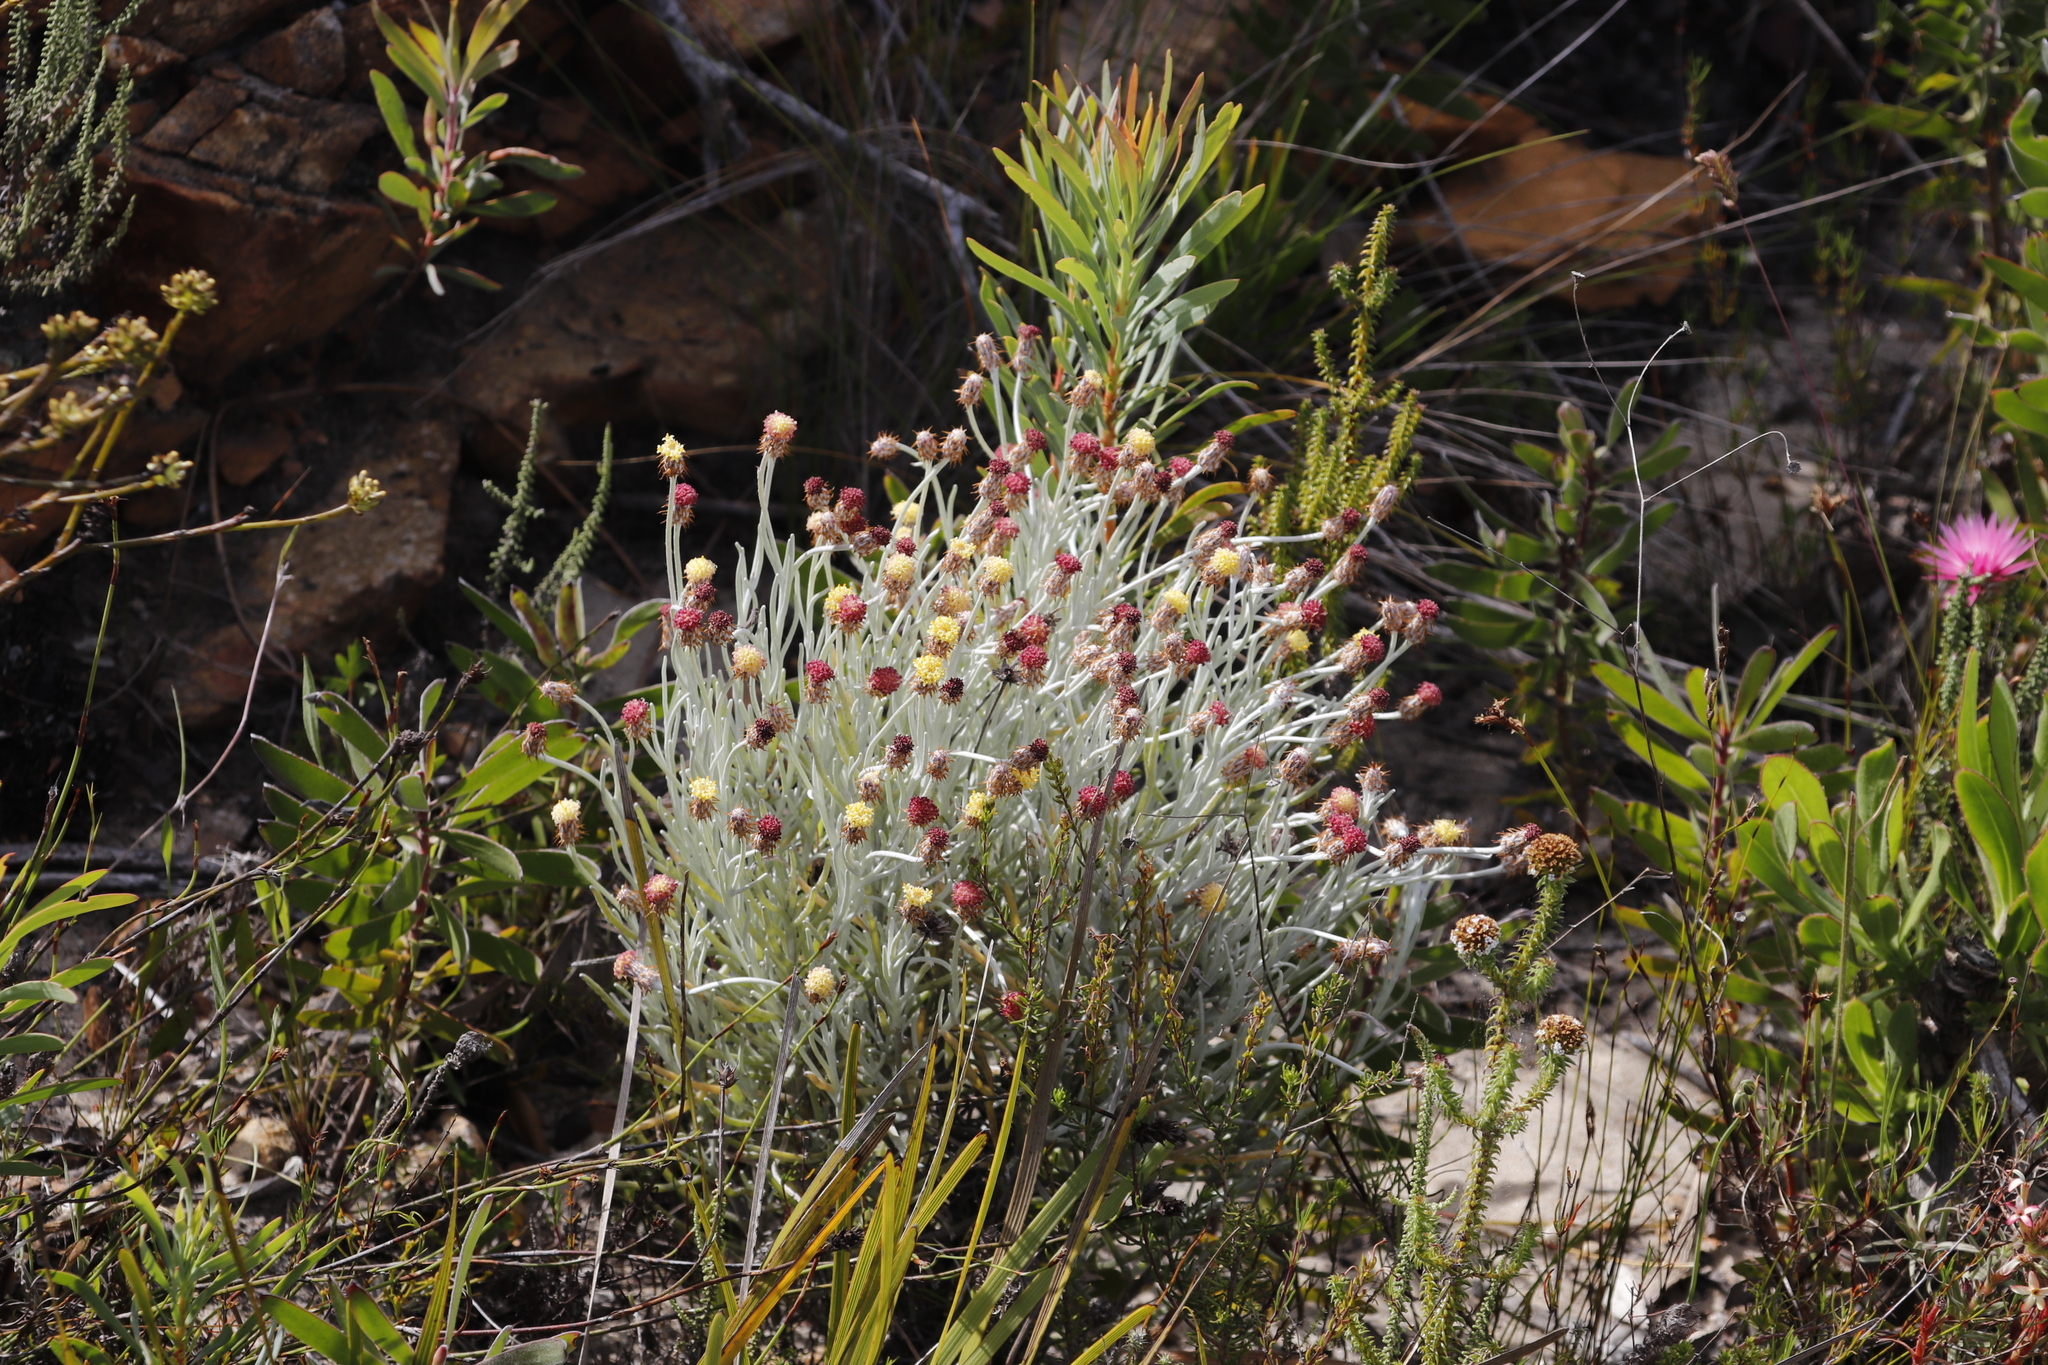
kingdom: Plantae
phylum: Tracheophyta
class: Magnoliopsida
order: Asterales
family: Asteraceae
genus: Syncarpha
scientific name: Syncarpha gnaphaloides
